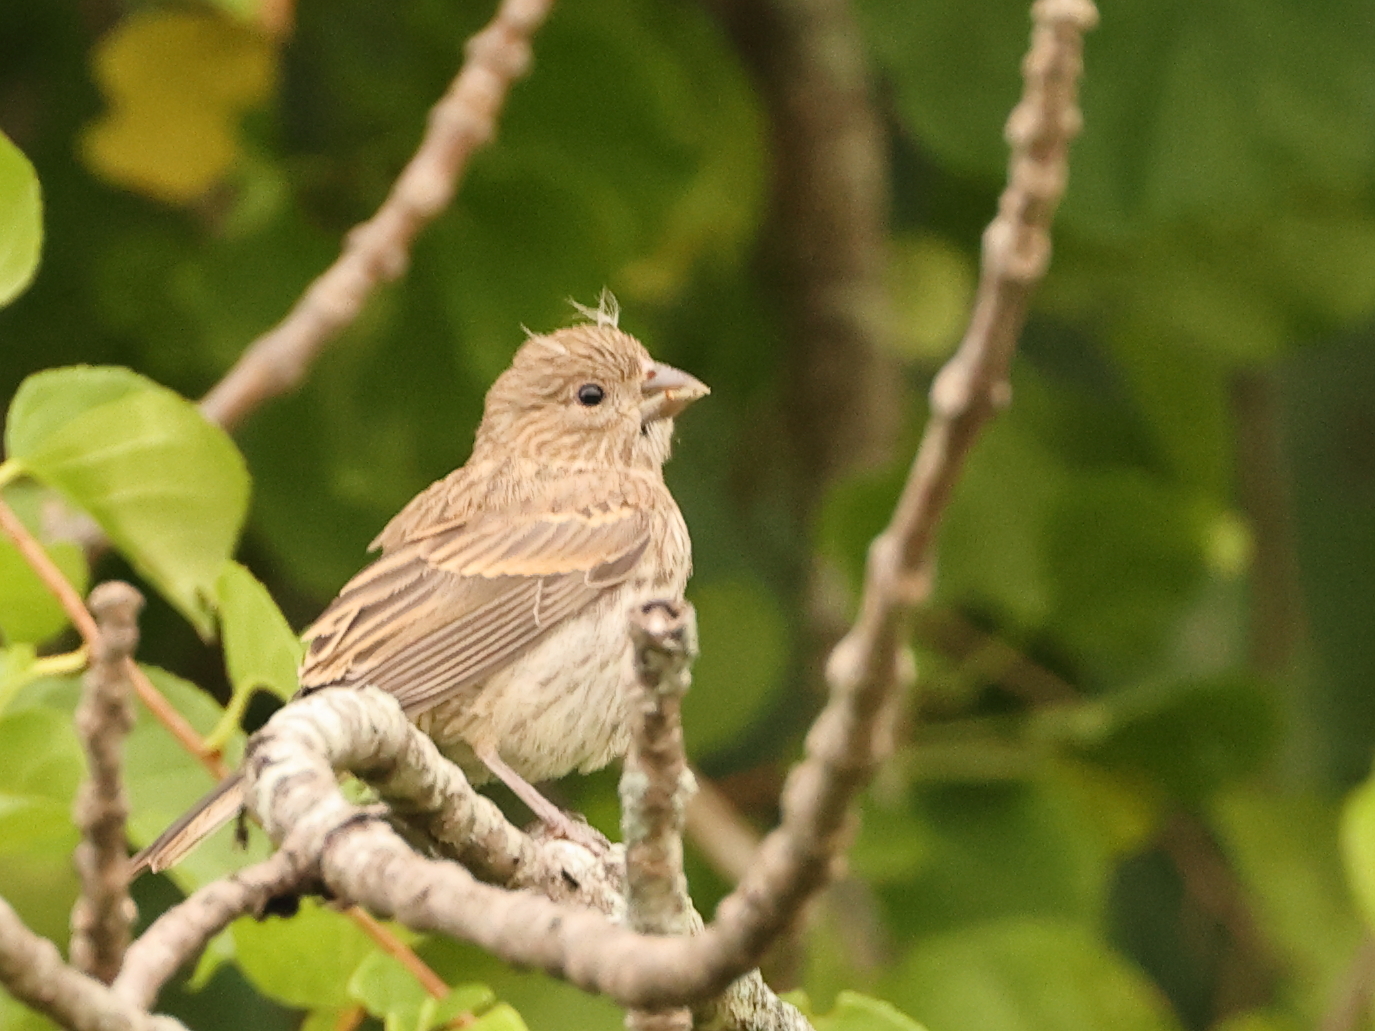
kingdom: Animalia
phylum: Chordata
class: Aves
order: Passeriformes
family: Fringillidae
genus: Haemorhous
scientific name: Haemorhous mexicanus
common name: House finch
